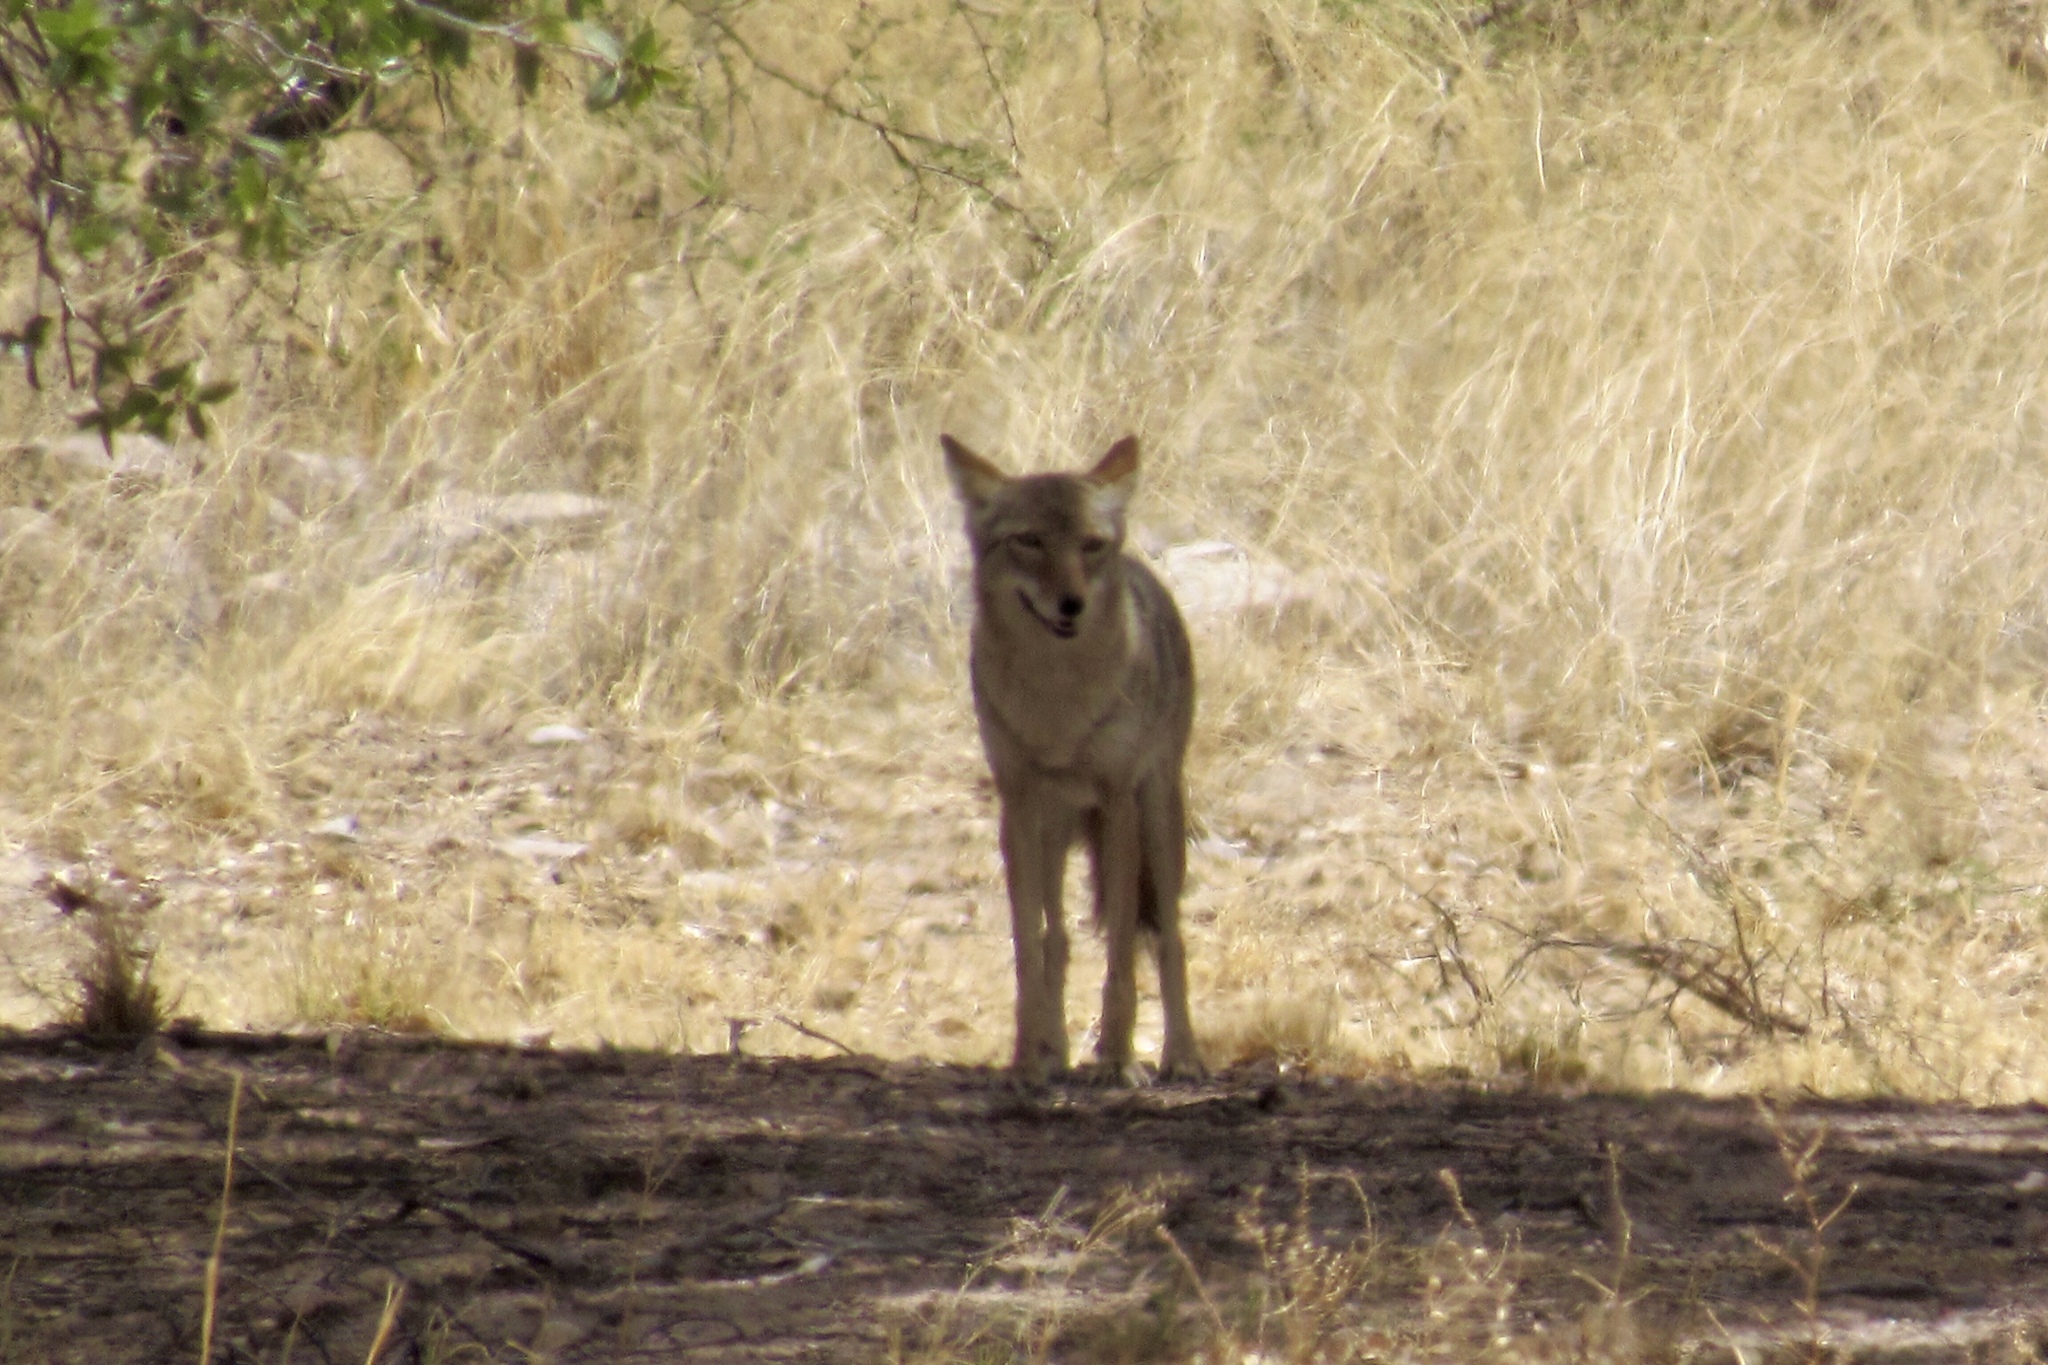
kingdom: Animalia
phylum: Chordata
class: Mammalia
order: Carnivora
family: Canidae
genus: Canis
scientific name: Canis latrans
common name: Coyote
